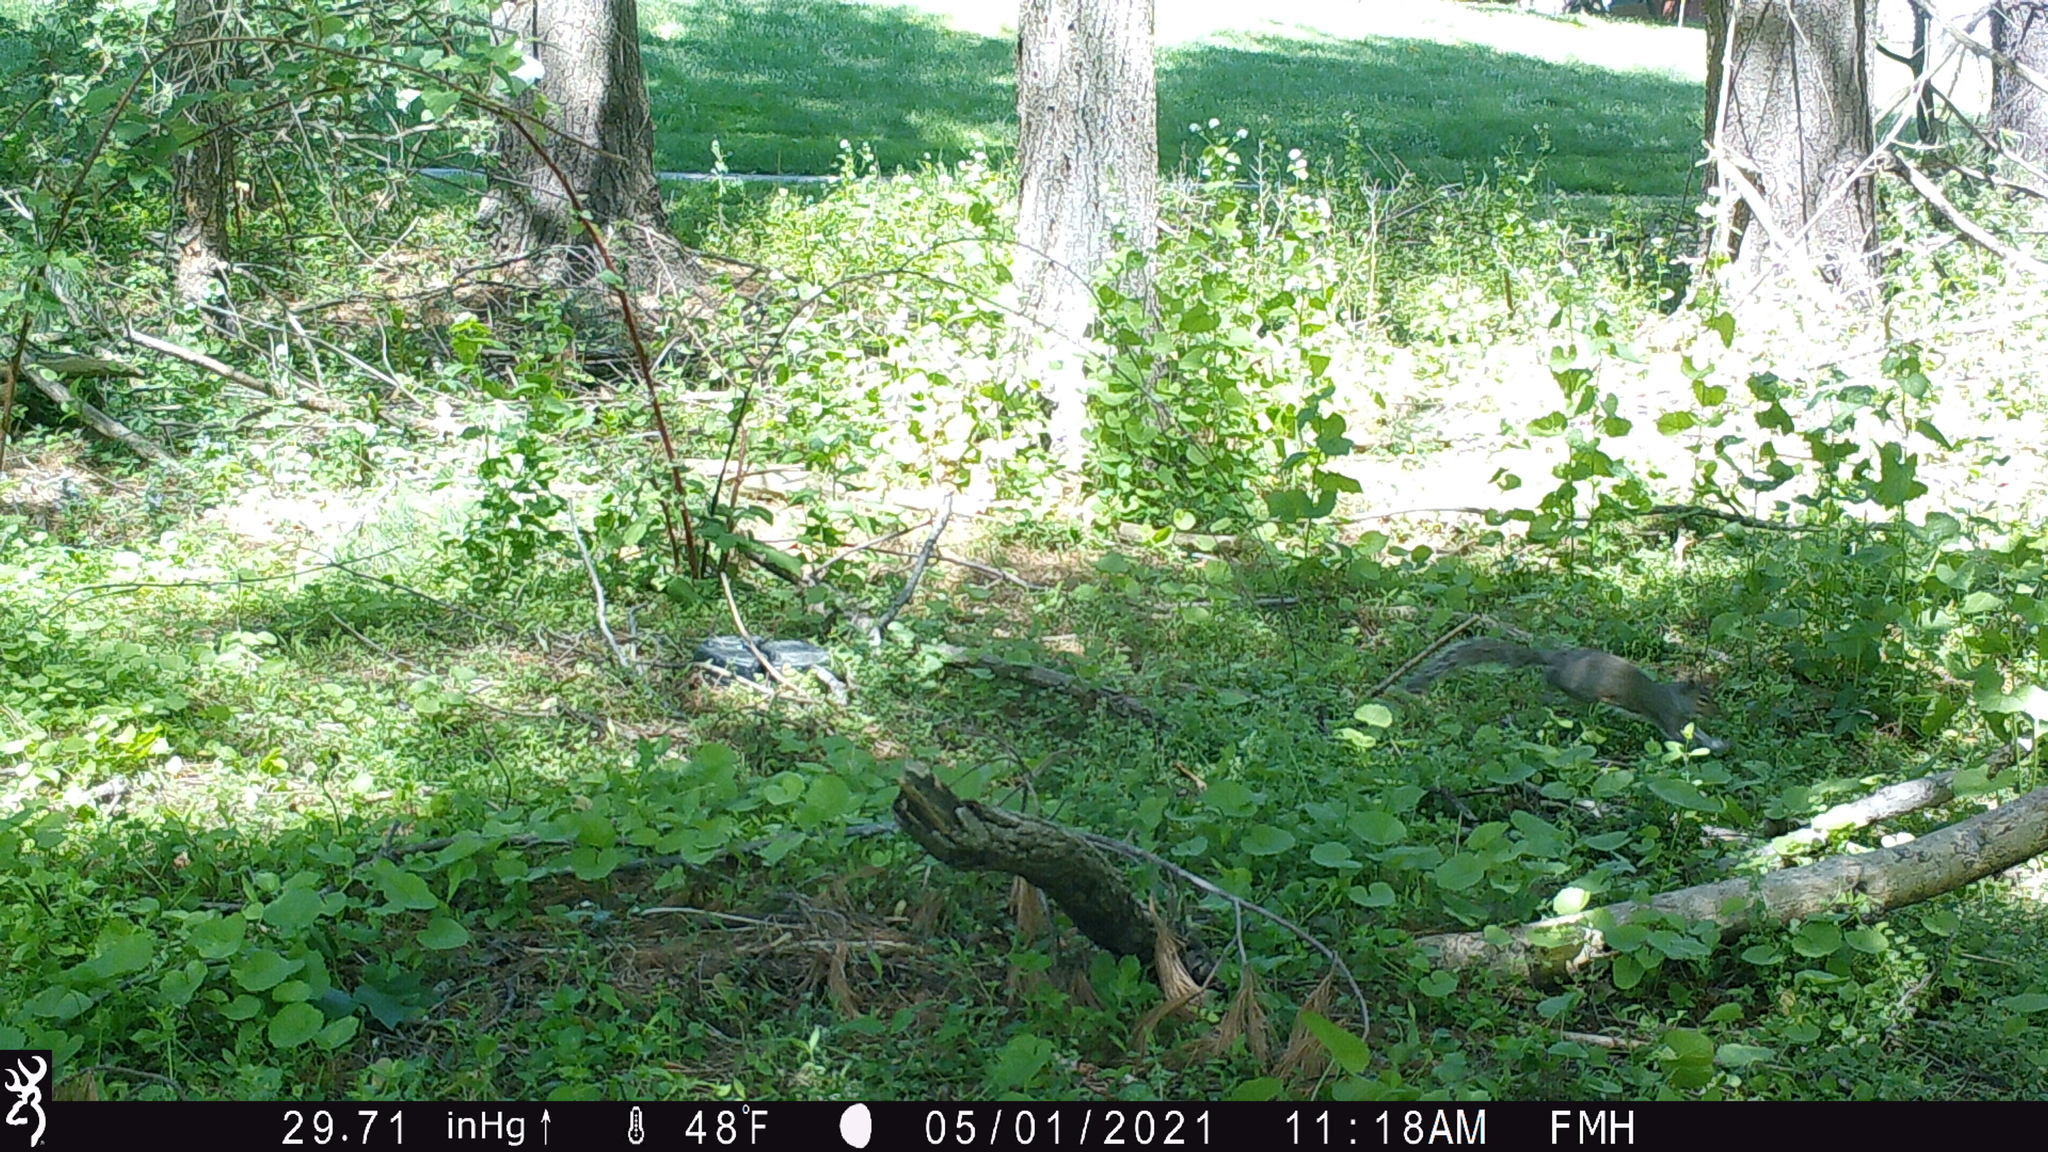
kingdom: Animalia
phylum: Chordata
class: Mammalia
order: Rodentia
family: Sciuridae
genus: Sciurus
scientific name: Sciurus carolinensis
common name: Eastern gray squirrel
